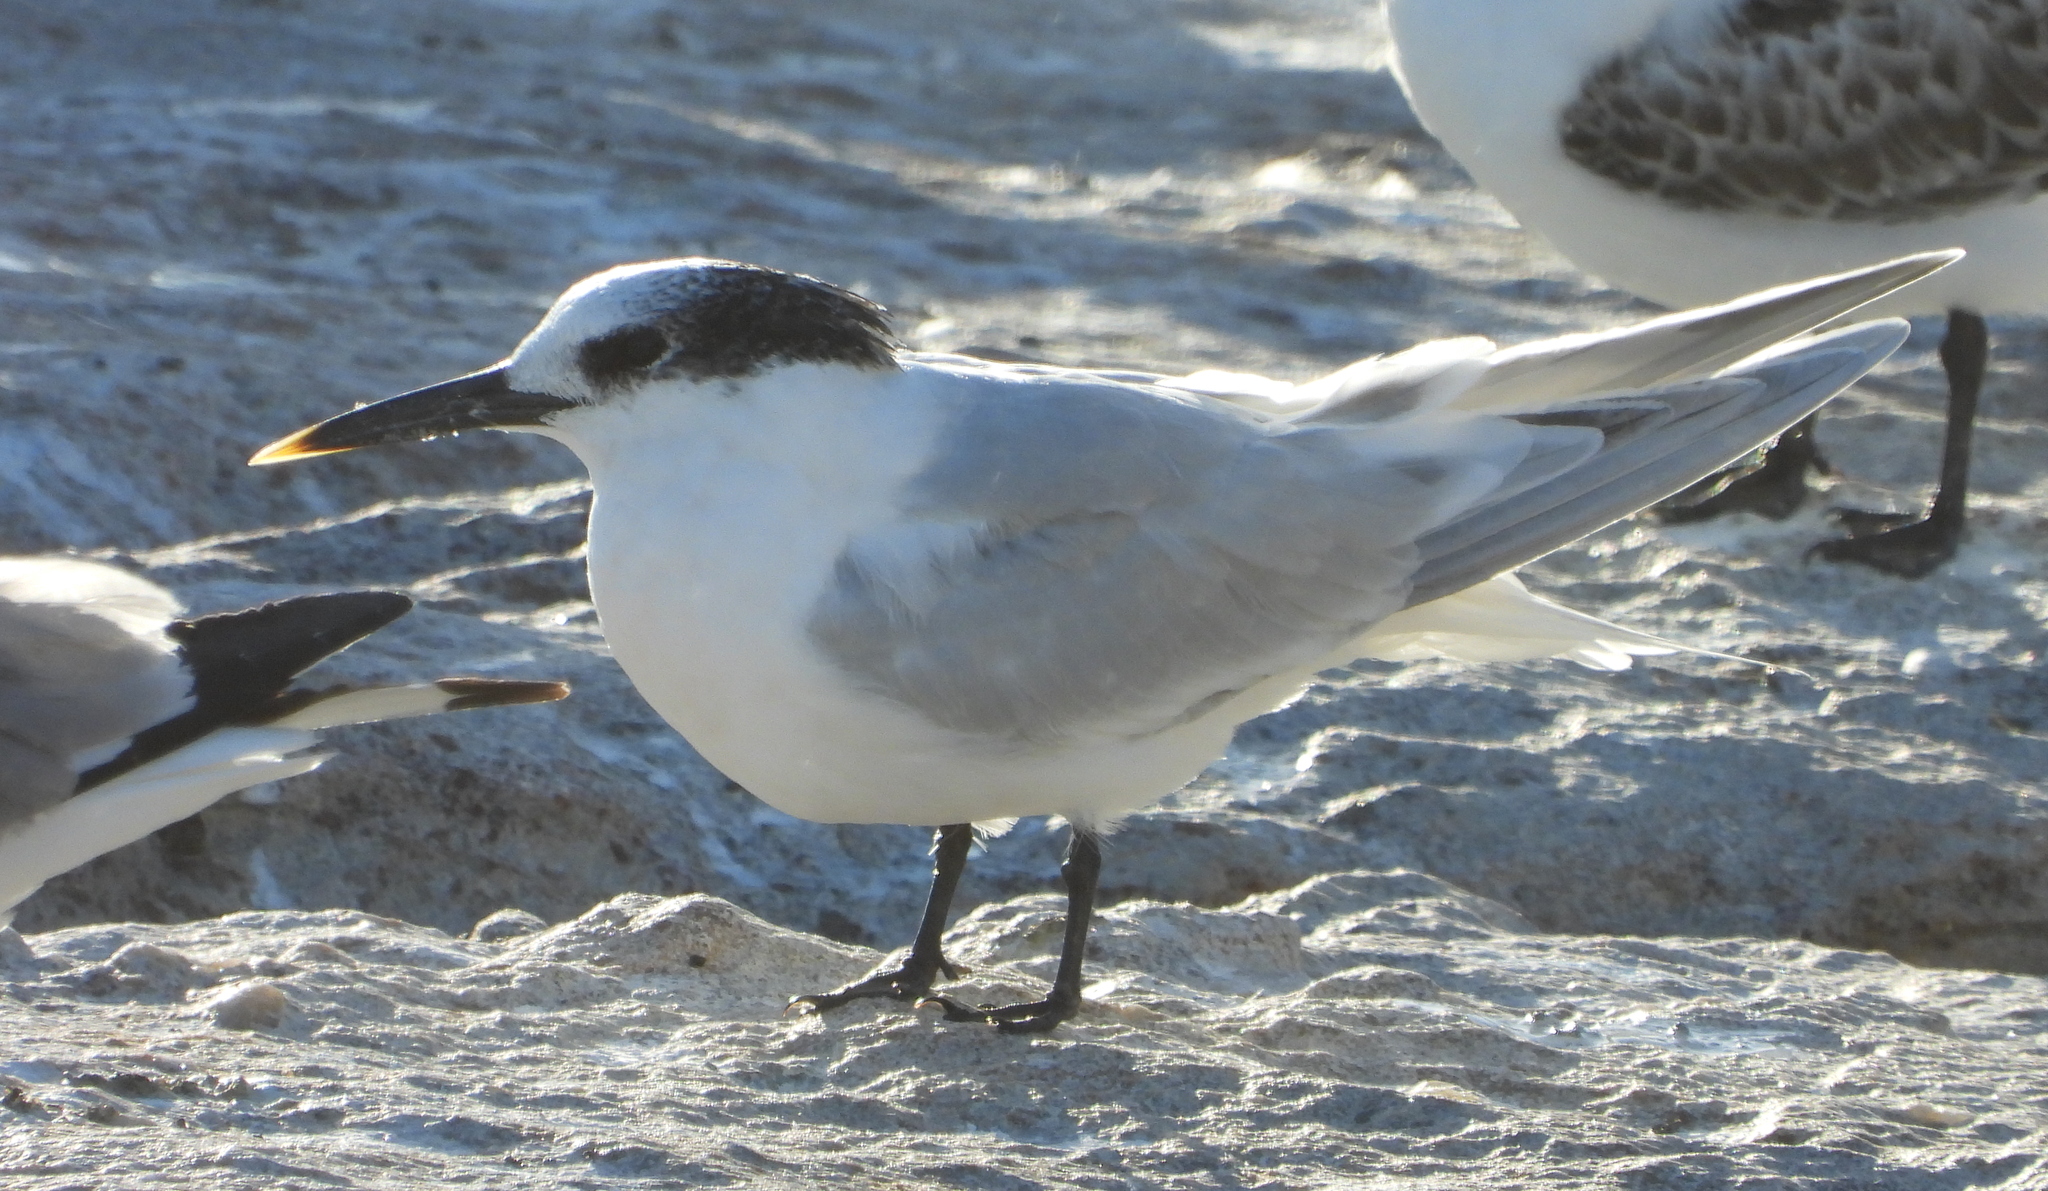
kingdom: Animalia
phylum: Chordata
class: Aves
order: Charadriiformes
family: Laridae
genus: Thalasseus
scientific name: Thalasseus sandvicensis
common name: Sandwich tern
